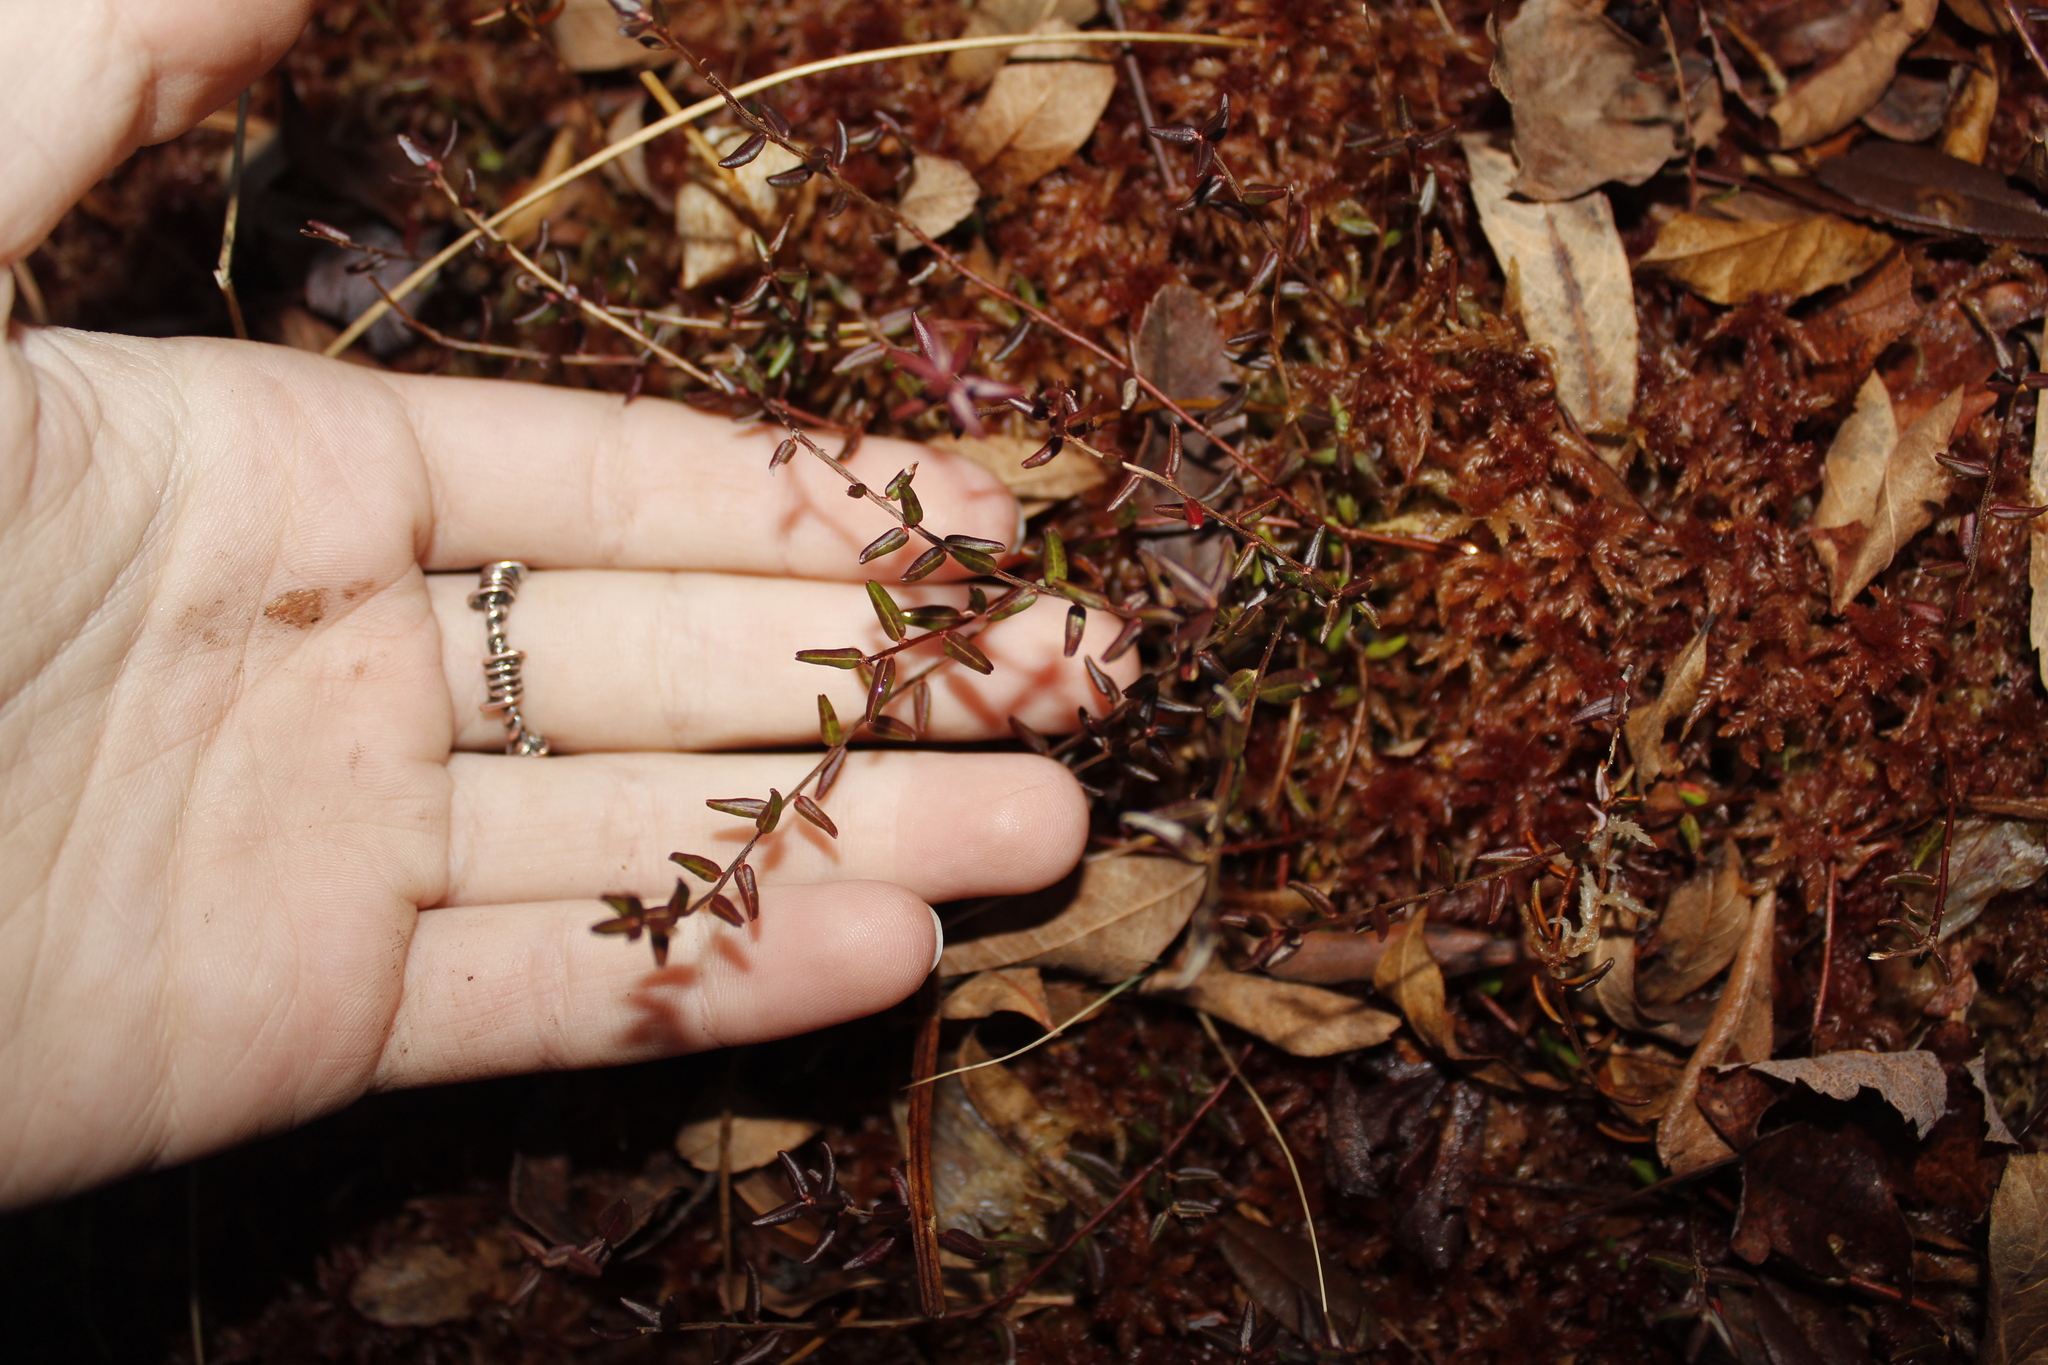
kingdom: Plantae
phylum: Tracheophyta
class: Magnoliopsida
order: Ericales
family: Ericaceae
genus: Vaccinium
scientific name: Vaccinium oxycoccos
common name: Cranberry
